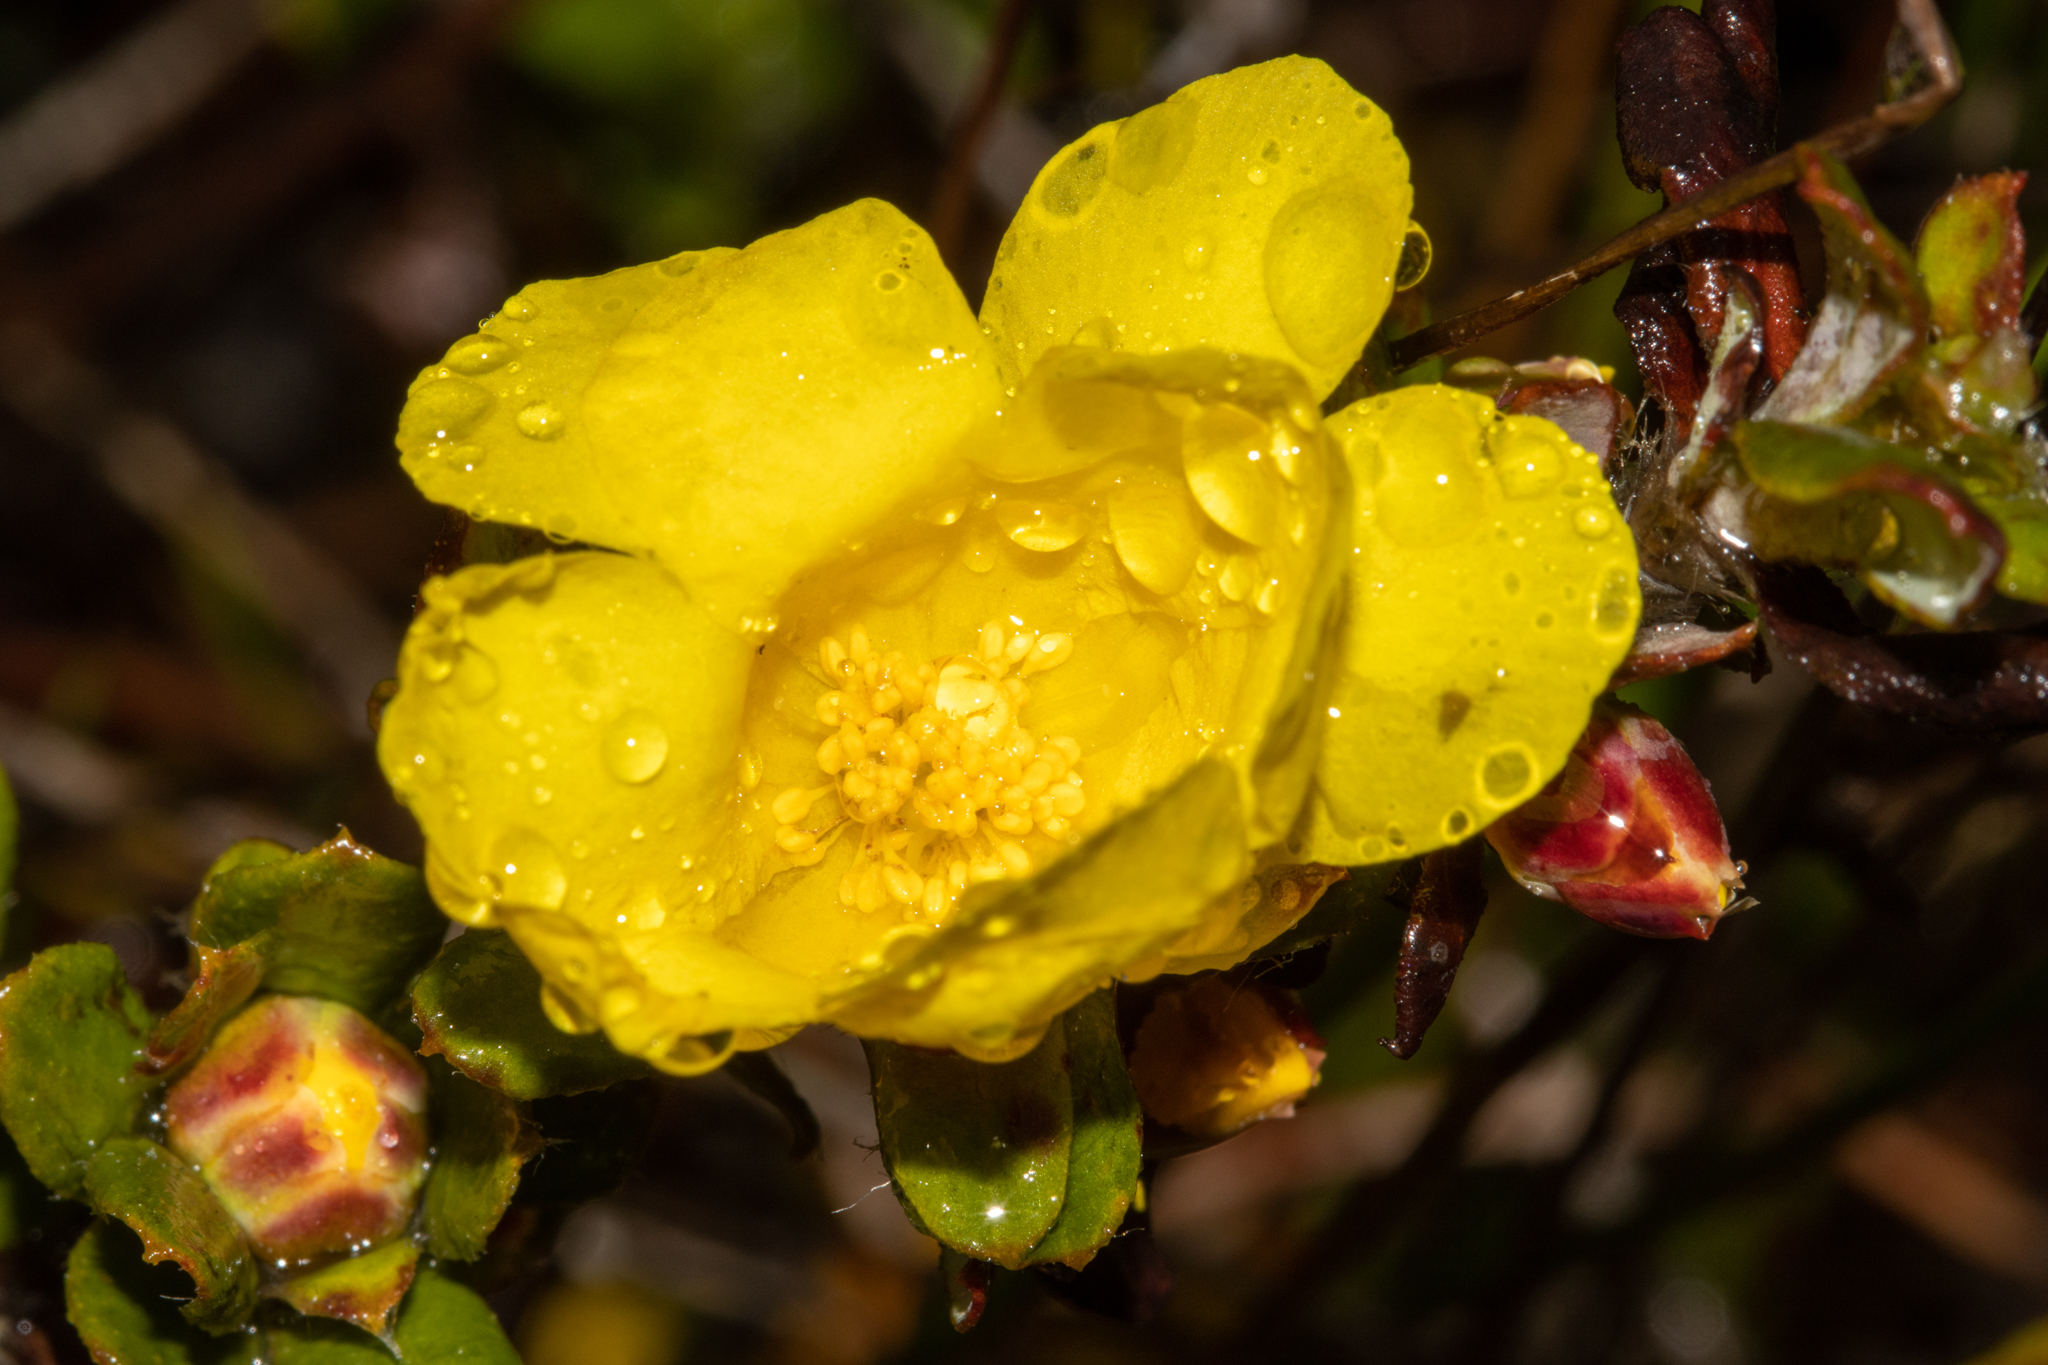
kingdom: Plantae
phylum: Tracheophyta
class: Magnoliopsida
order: Dilleniales
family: Dilleniaceae
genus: Hibbertia
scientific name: Hibbertia mylnei
